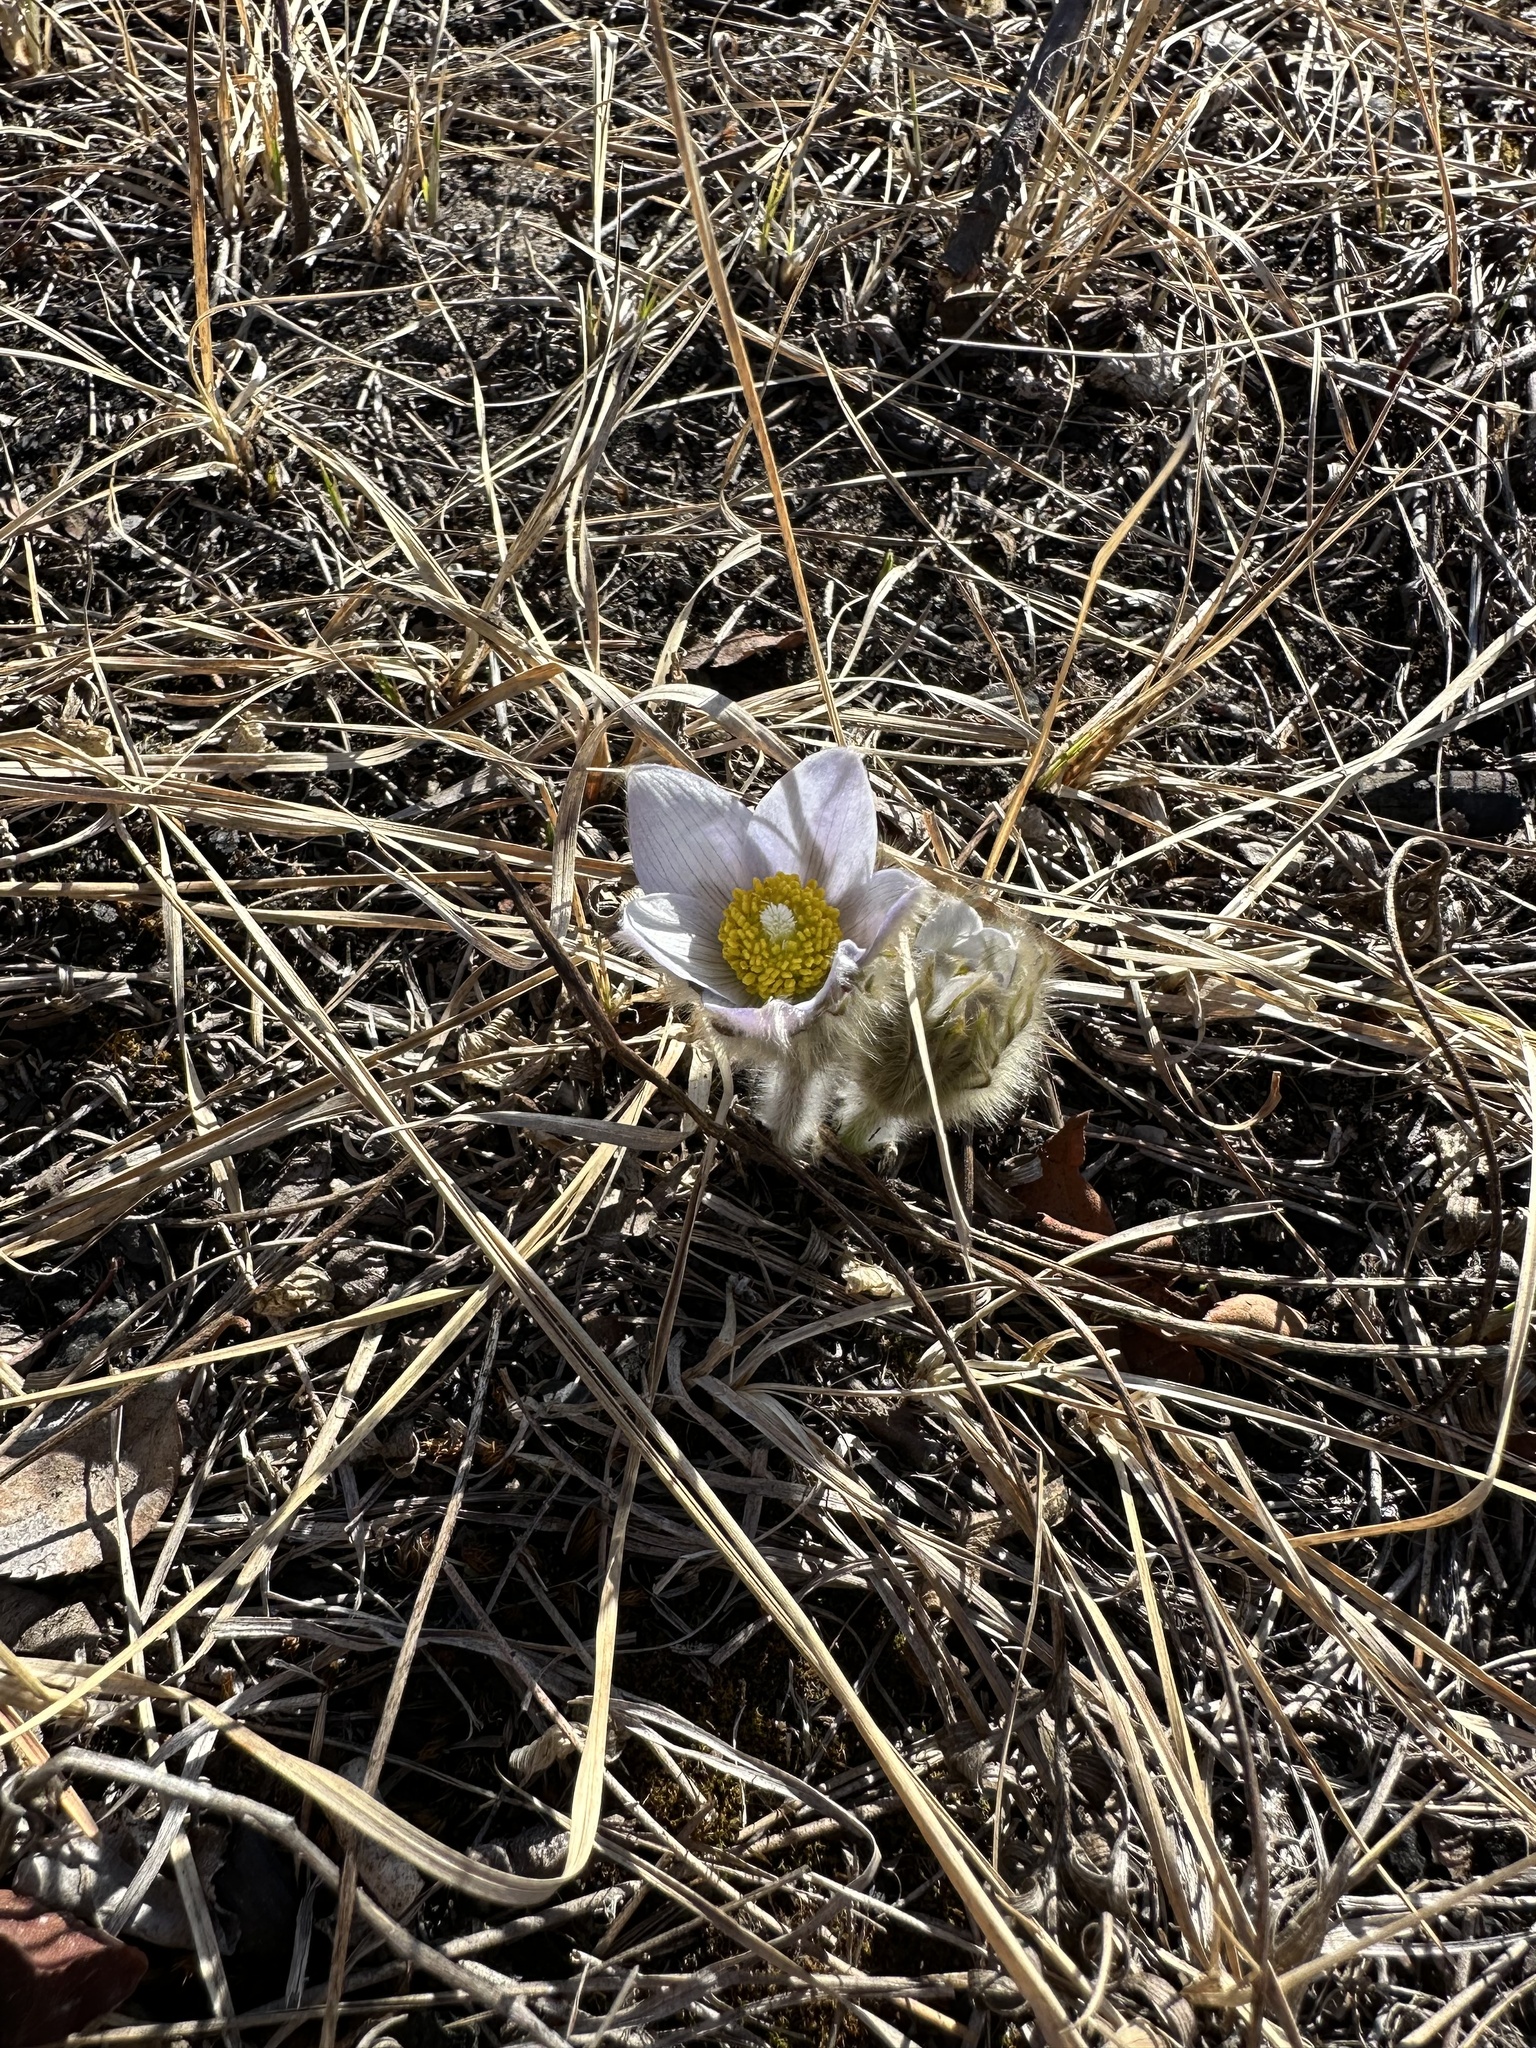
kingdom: Plantae
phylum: Tracheophyta
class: Magnoliopsida
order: Ranunculales
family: Ranunculaceae
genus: Pulsatilla
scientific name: Pulsatilla nuttalliana
